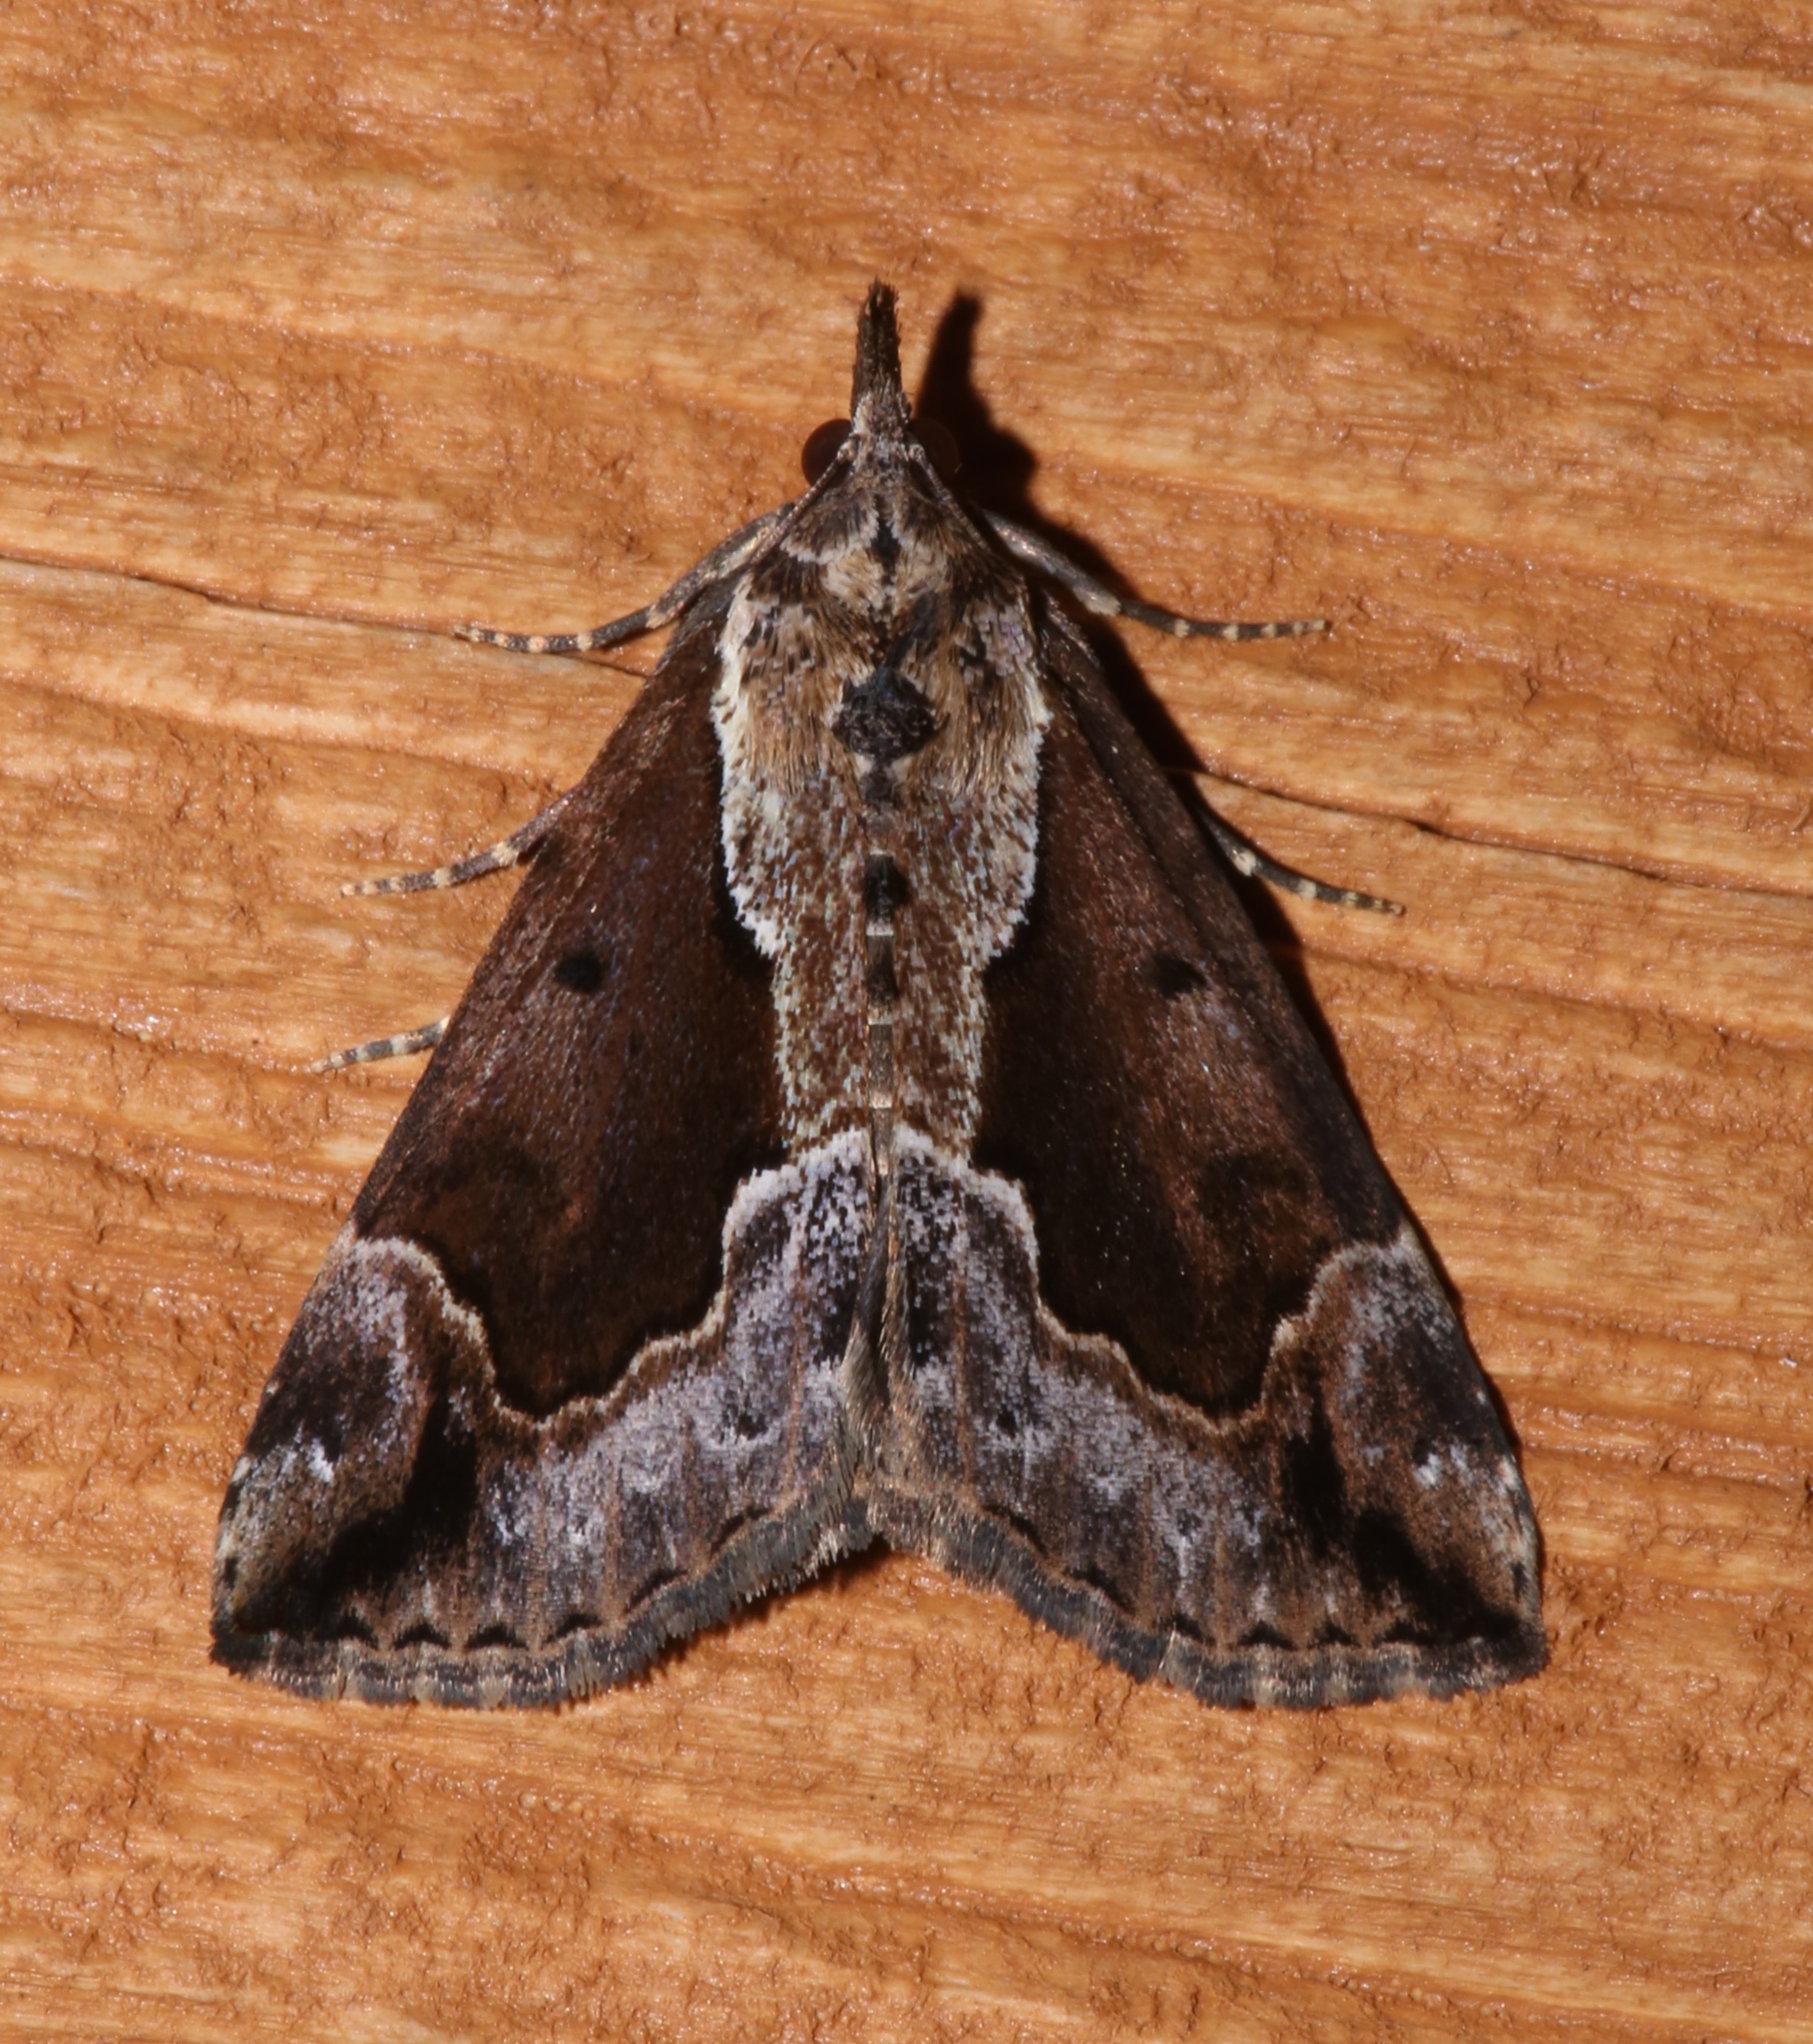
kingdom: Animalia
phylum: Arthropoda
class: Insecta
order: Lepidoptera
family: Erebidae
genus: Hypena
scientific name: Hypena baltimoralis
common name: Baltimore snout
